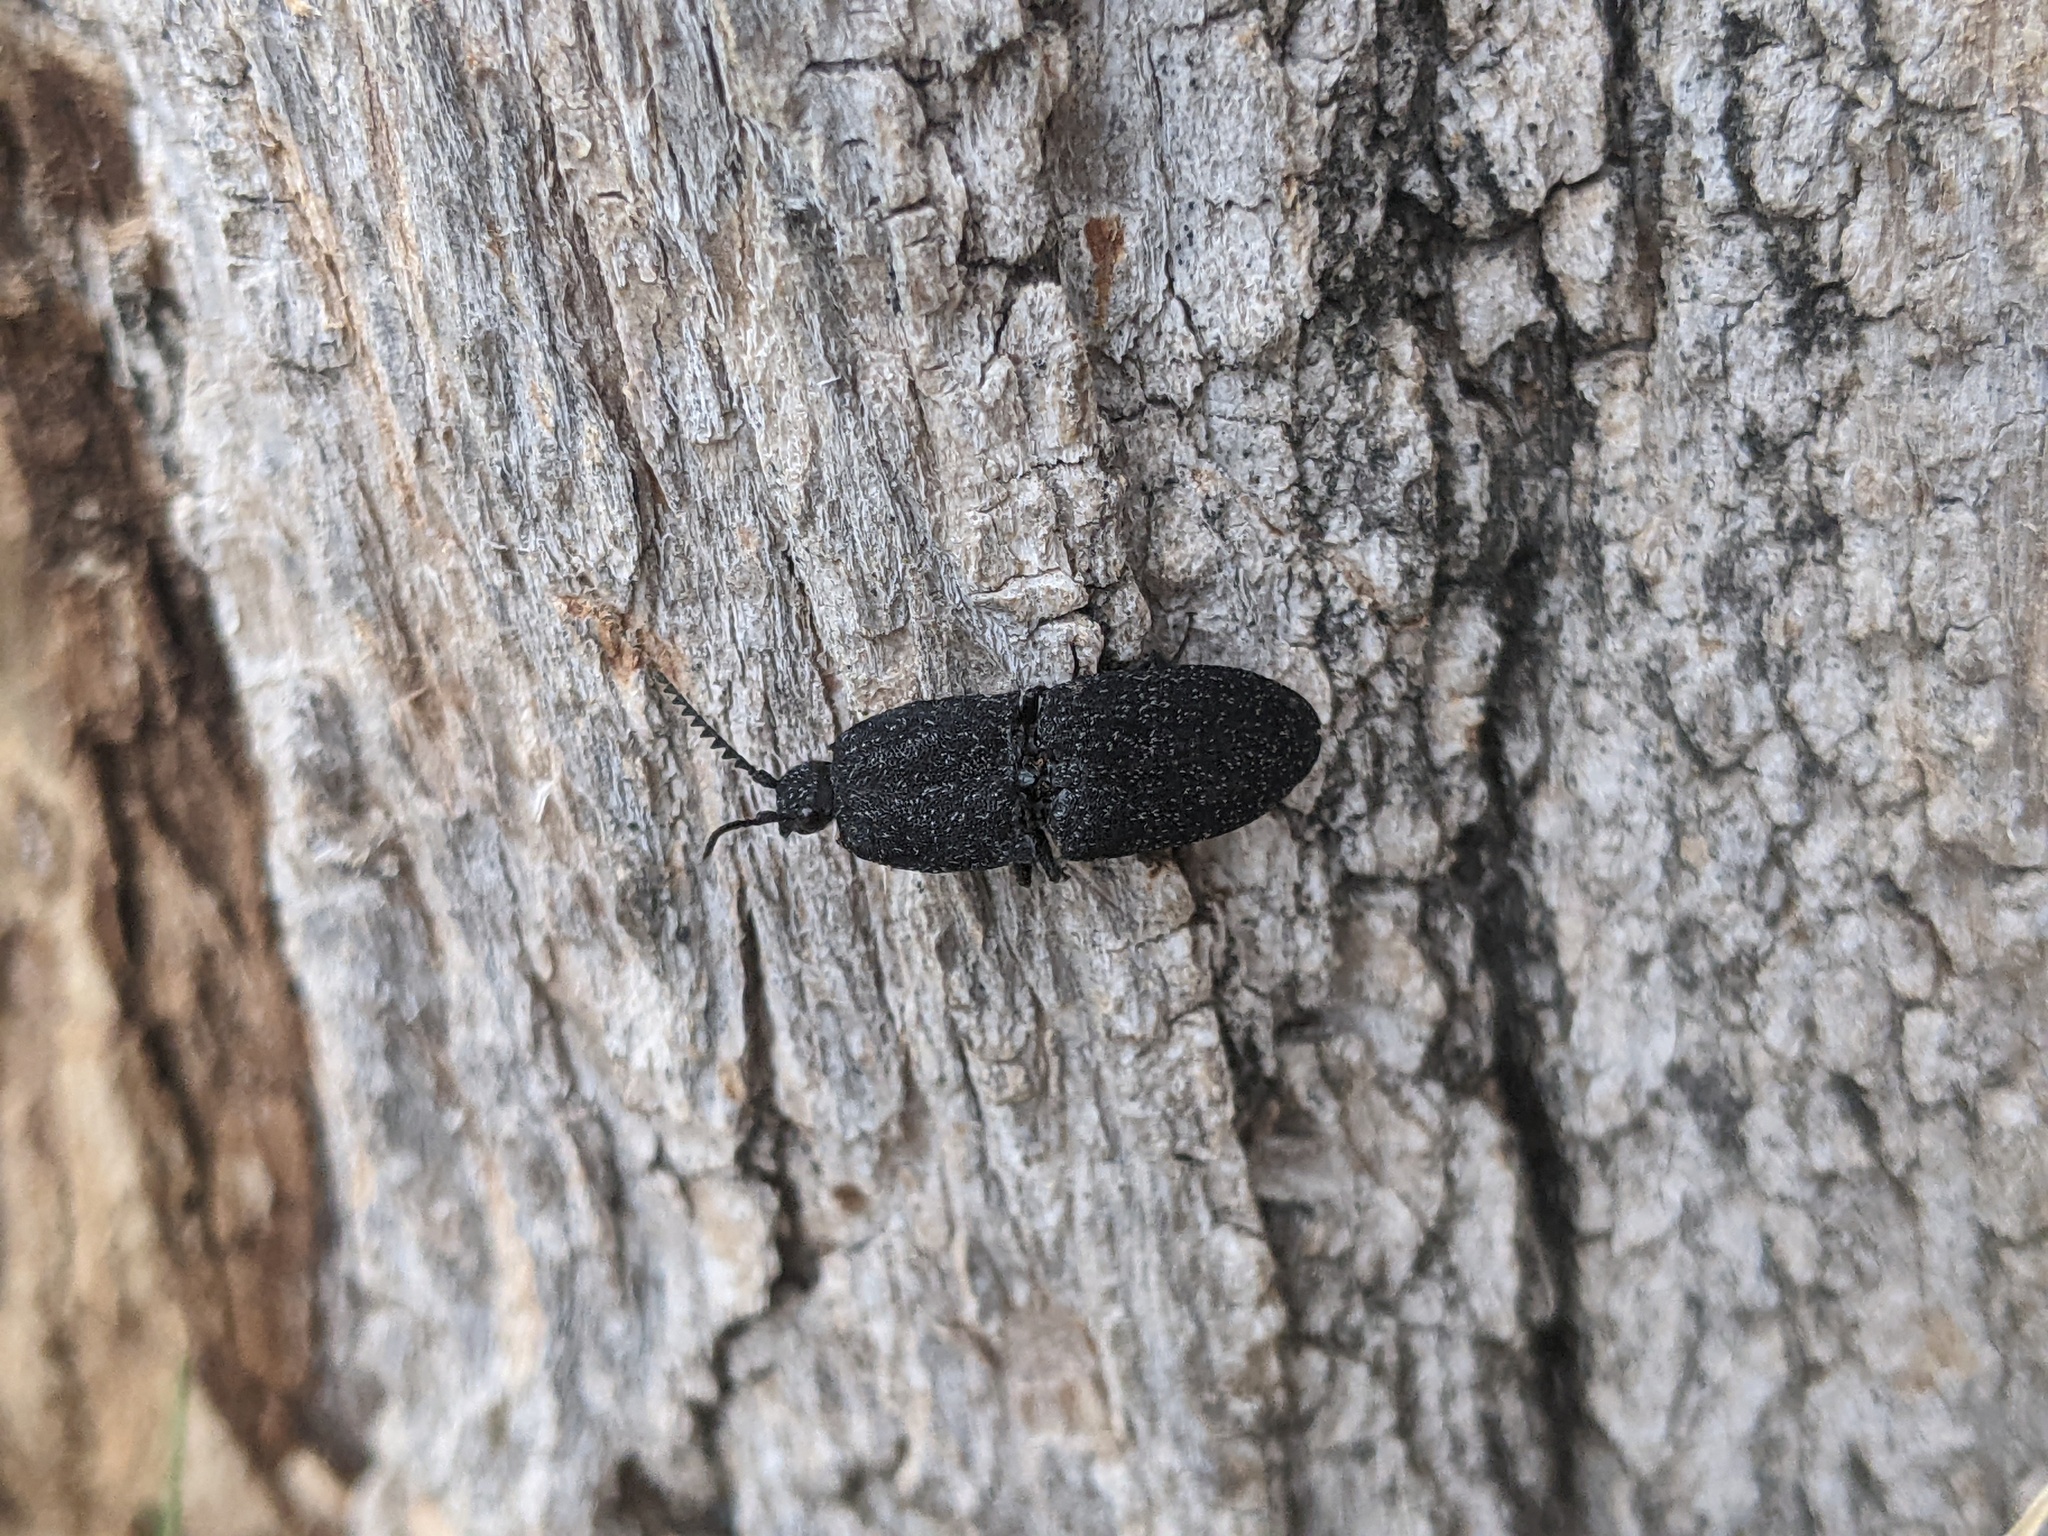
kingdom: Animalia
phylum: Arthropoda
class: Insecta
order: Coleoptera
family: Elateridae
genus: Lacon
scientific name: Lacon punctatus
